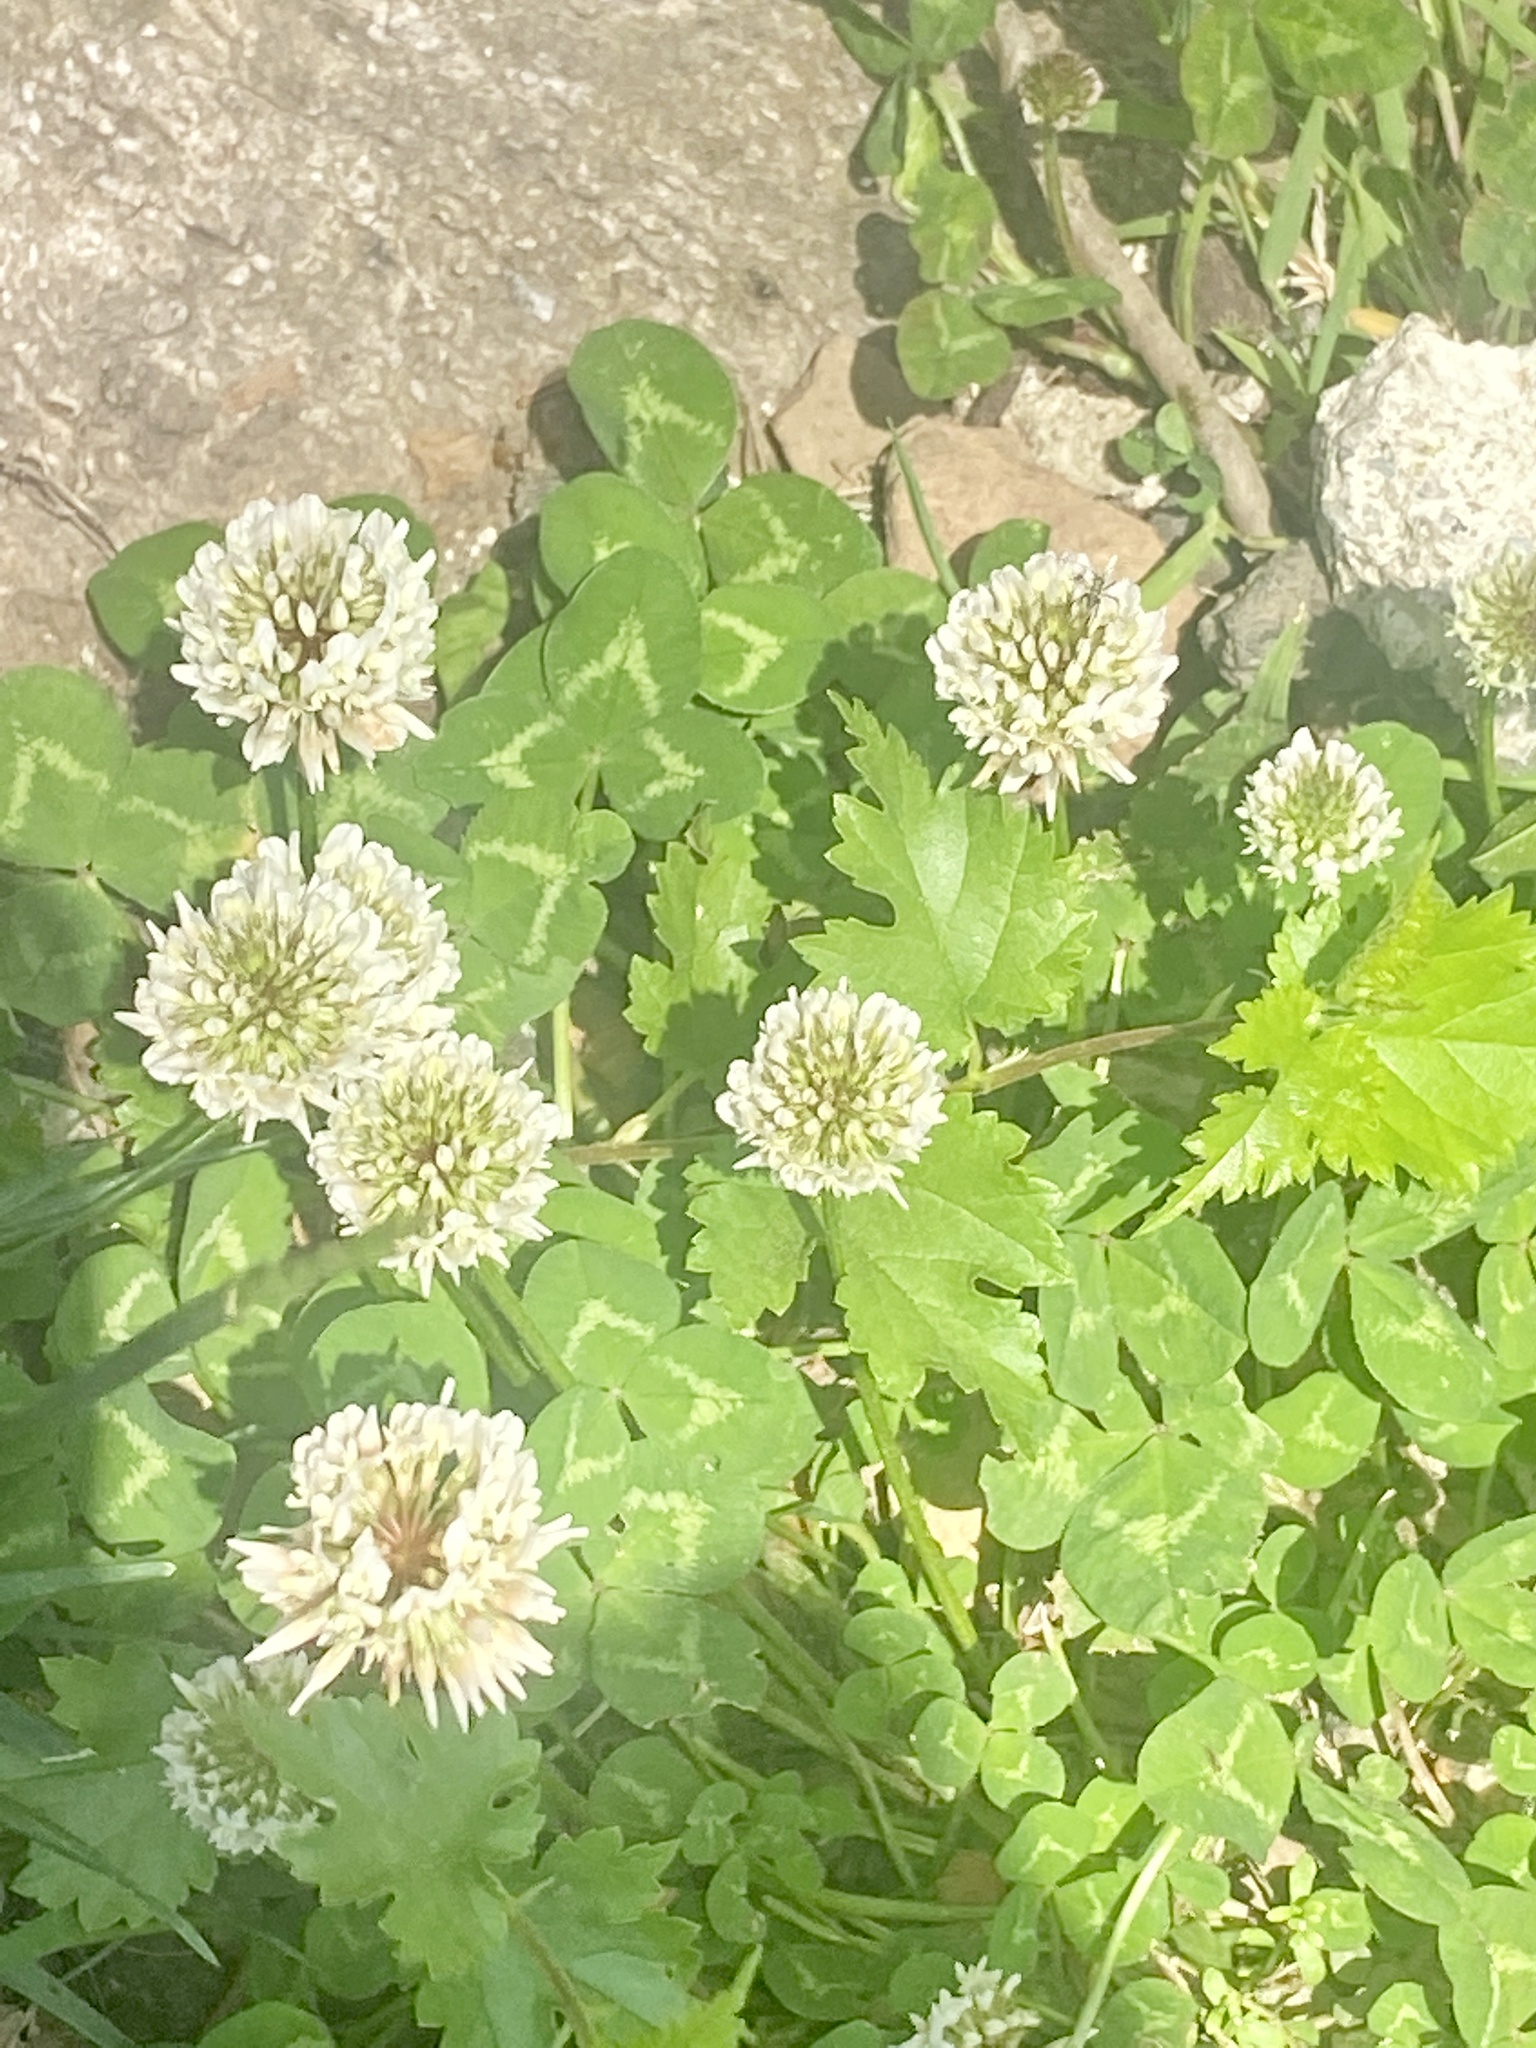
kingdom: Plantae
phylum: Tracheophyta
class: Magnoliopsida
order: Fabales
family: Fabaceae
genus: Trifolium
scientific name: Trifolium repens
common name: White clover
